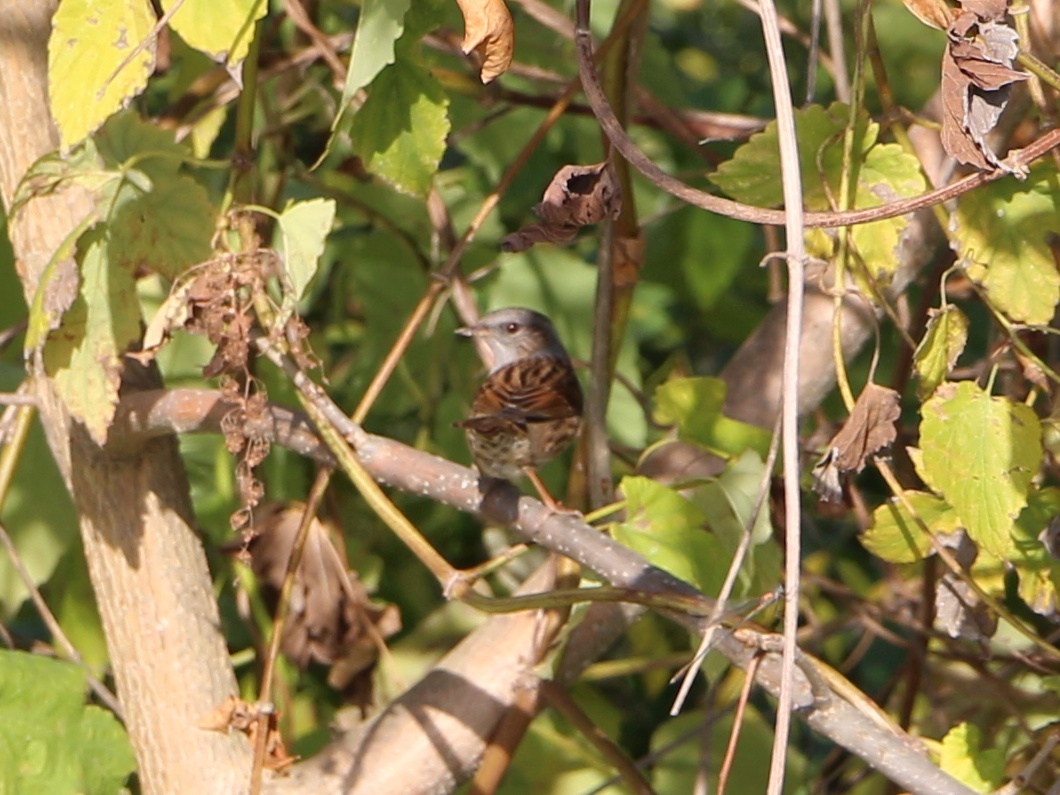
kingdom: Animalia
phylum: Chordata
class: Aves
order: Passeriformes
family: Prunellidae
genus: Prunella
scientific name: Prunella modularis
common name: Dunnock
